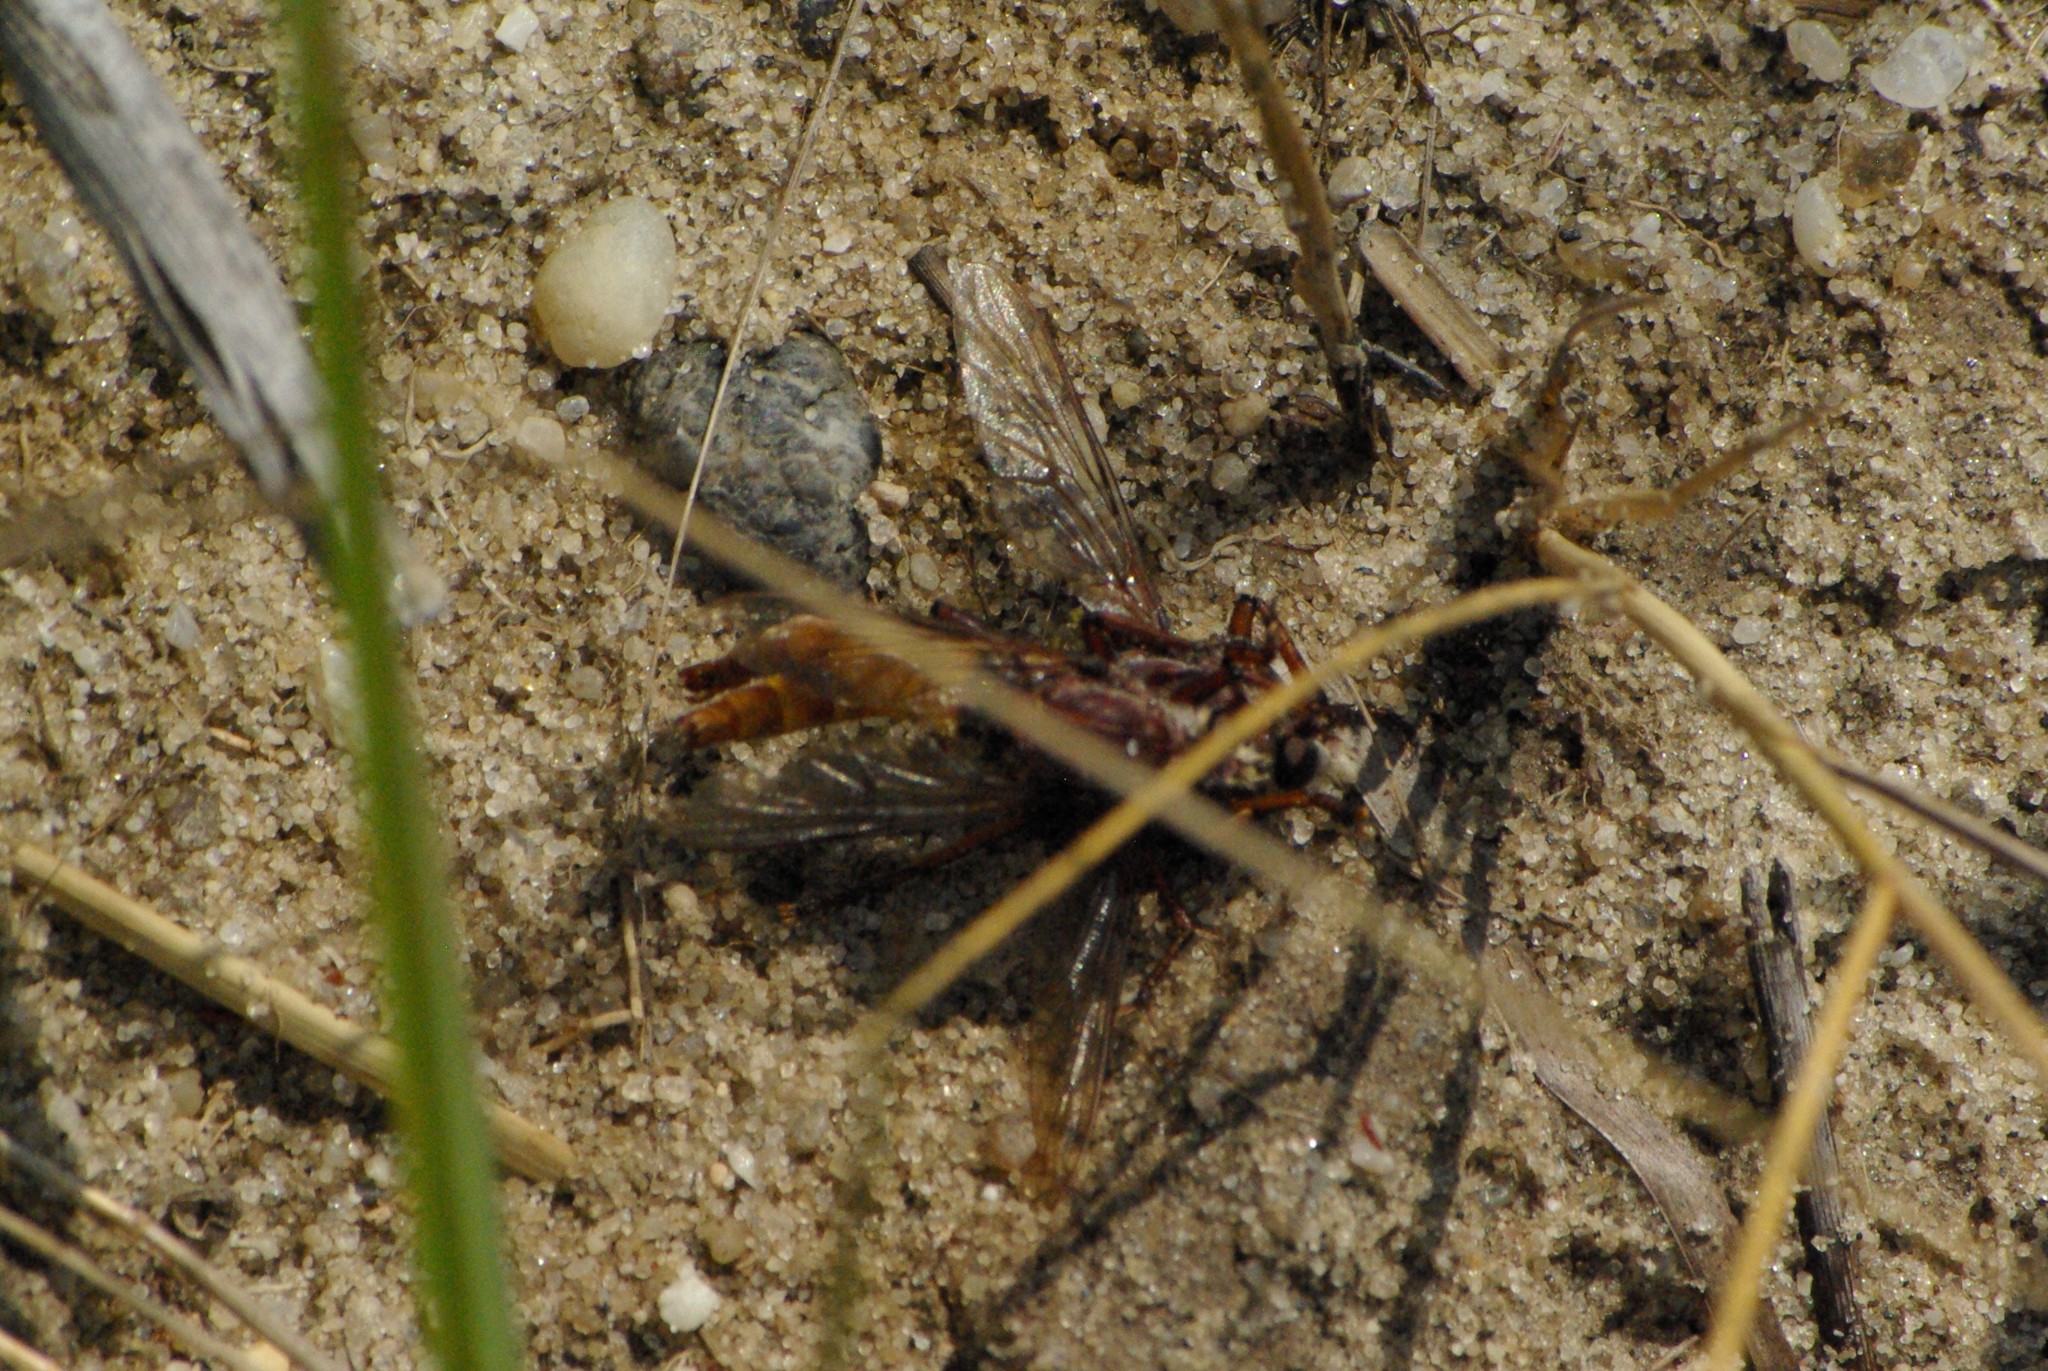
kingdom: Animalia
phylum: Arthropoda
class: Insecta
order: Diptera
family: Asilidae
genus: Proctacanthus
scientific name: Proctacanthus rufus
